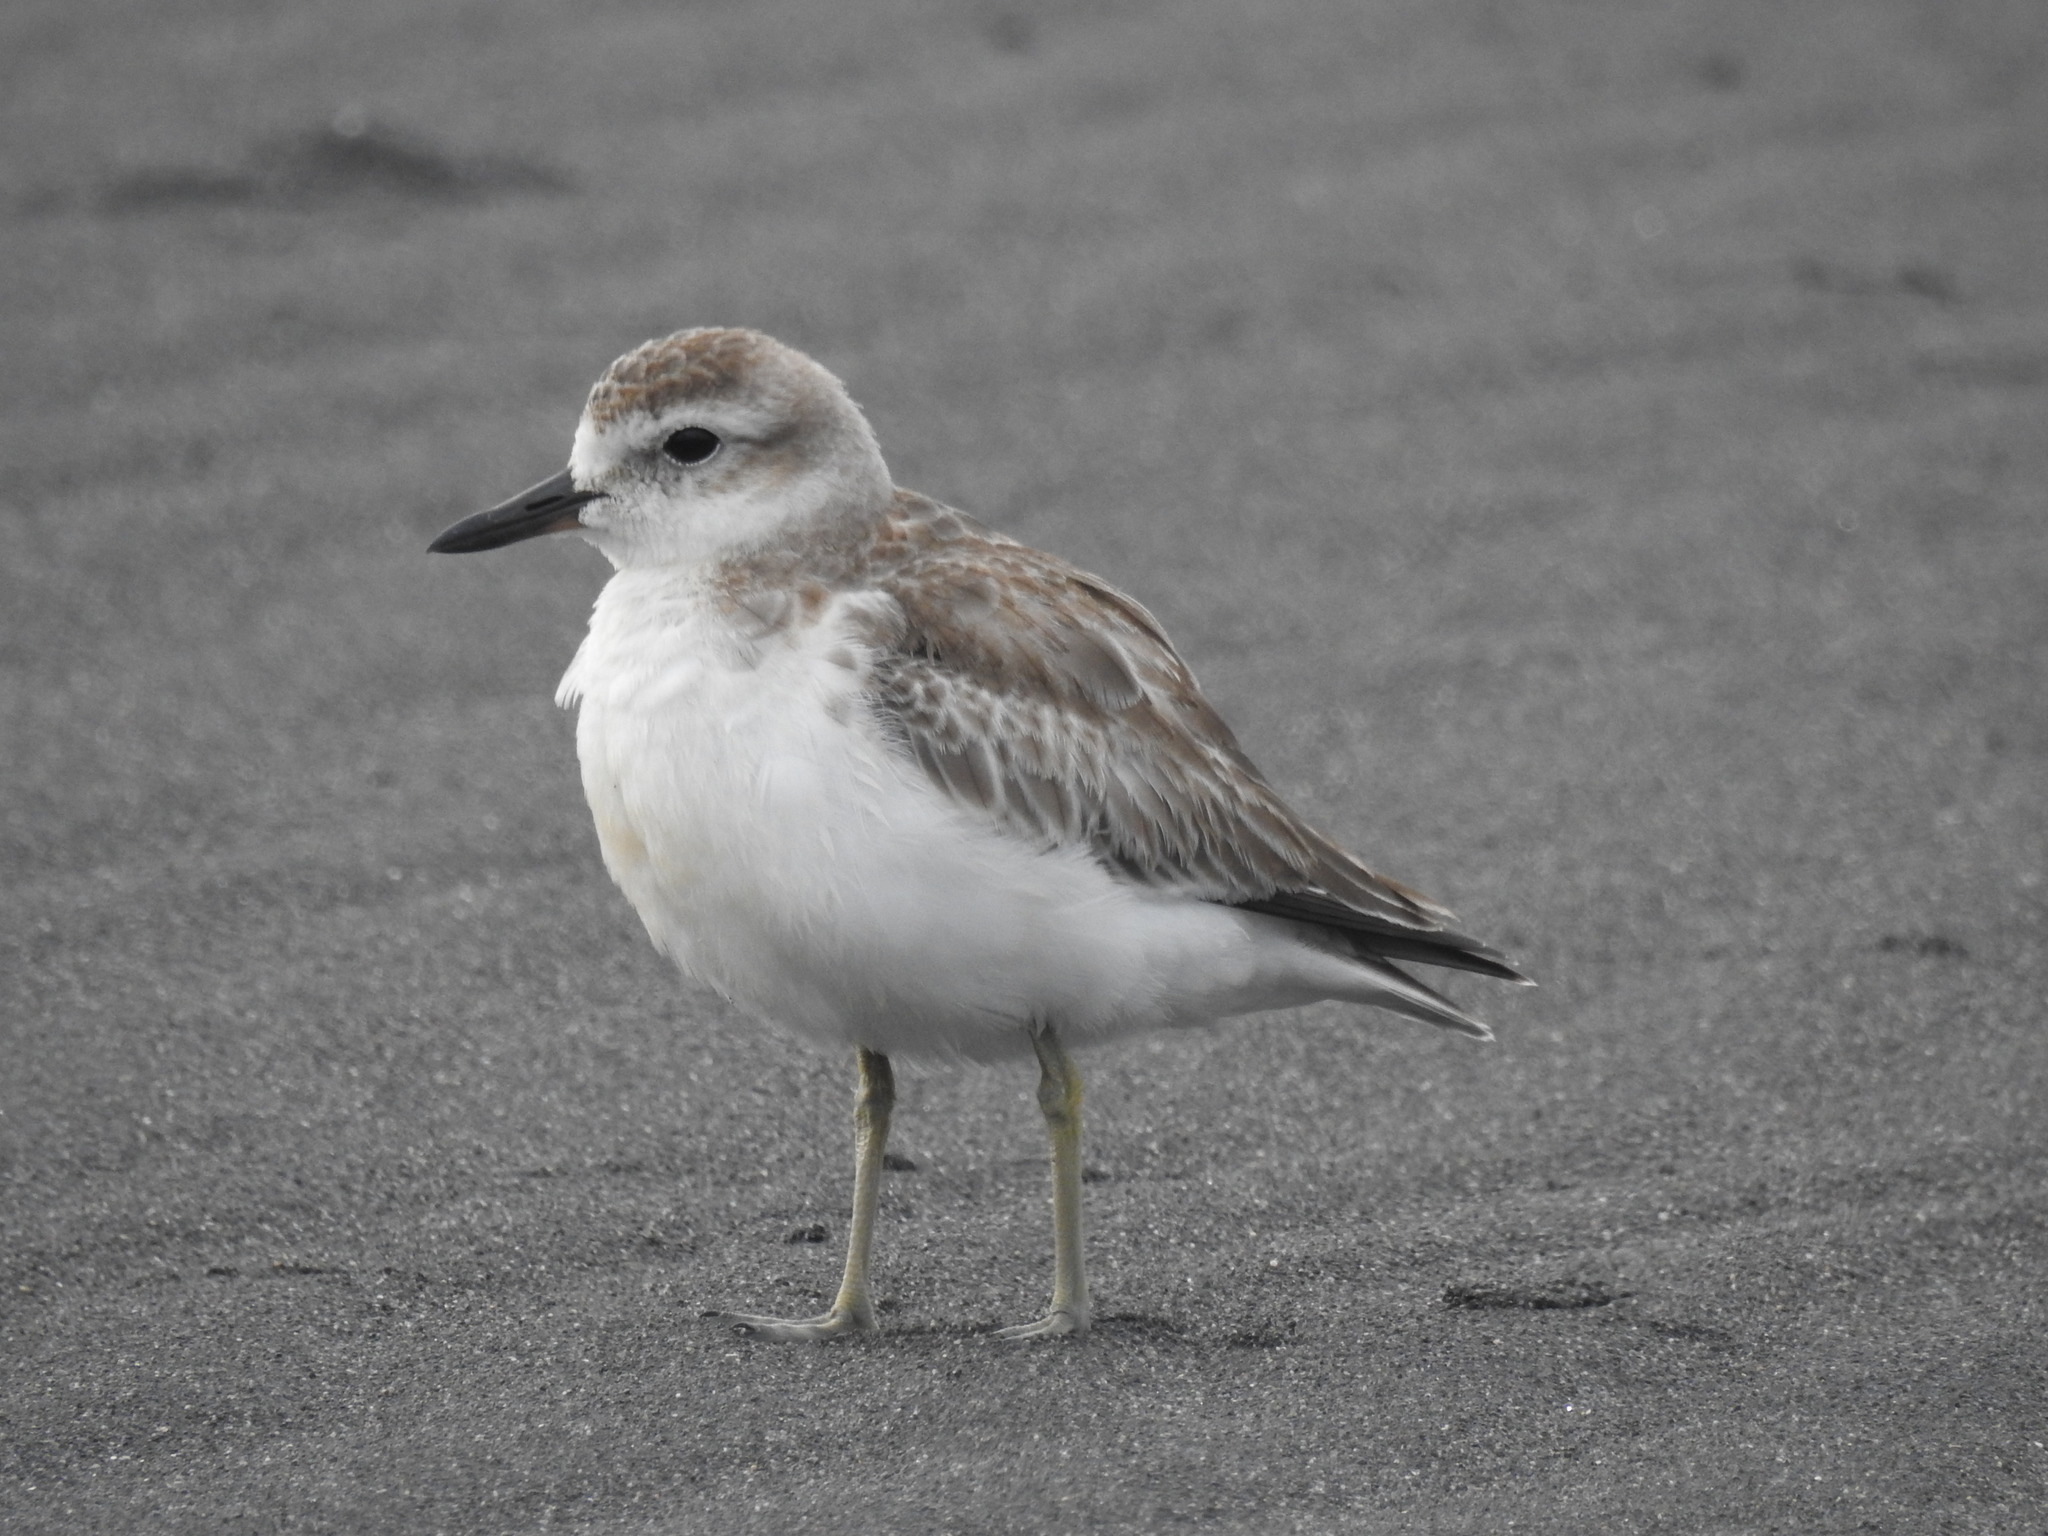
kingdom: Animalia
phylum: Chordata
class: Aves
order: Charadriiformes
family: Charadriidae
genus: Anarhynchus
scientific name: Anarhynchus
